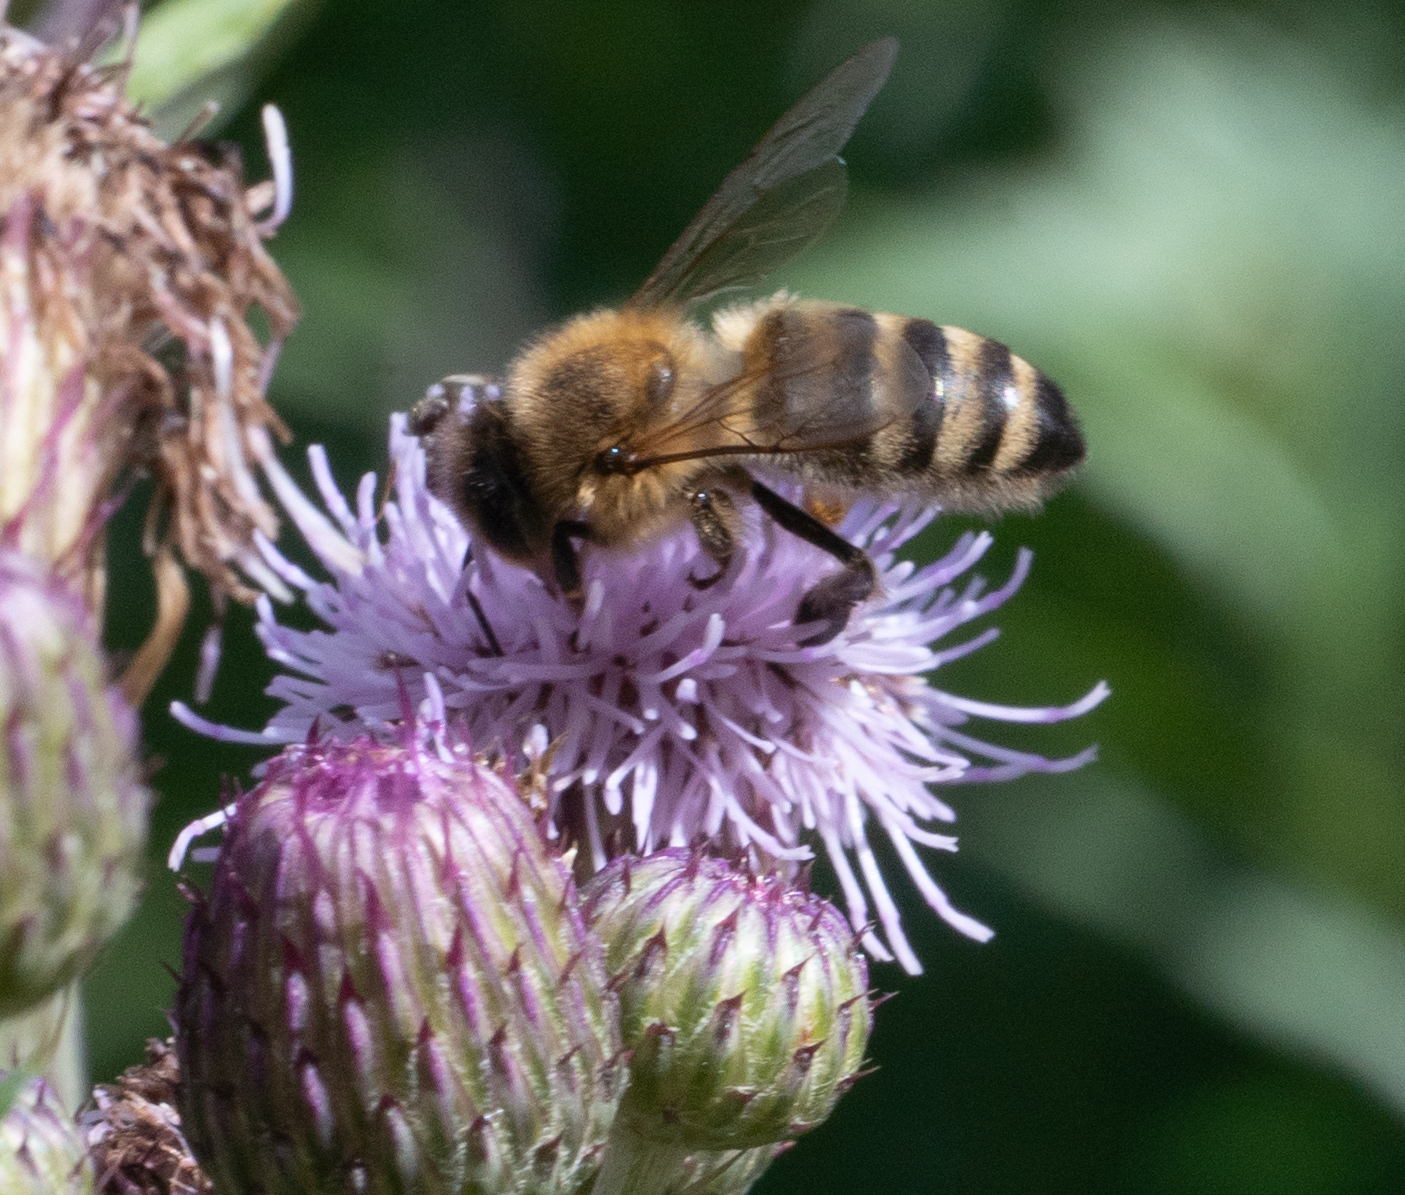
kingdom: Animalia
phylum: Arthropoda
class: Insecta
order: Hymenoptera
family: Apidae
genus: Apis
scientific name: Apis mellifera
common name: Honey bee
